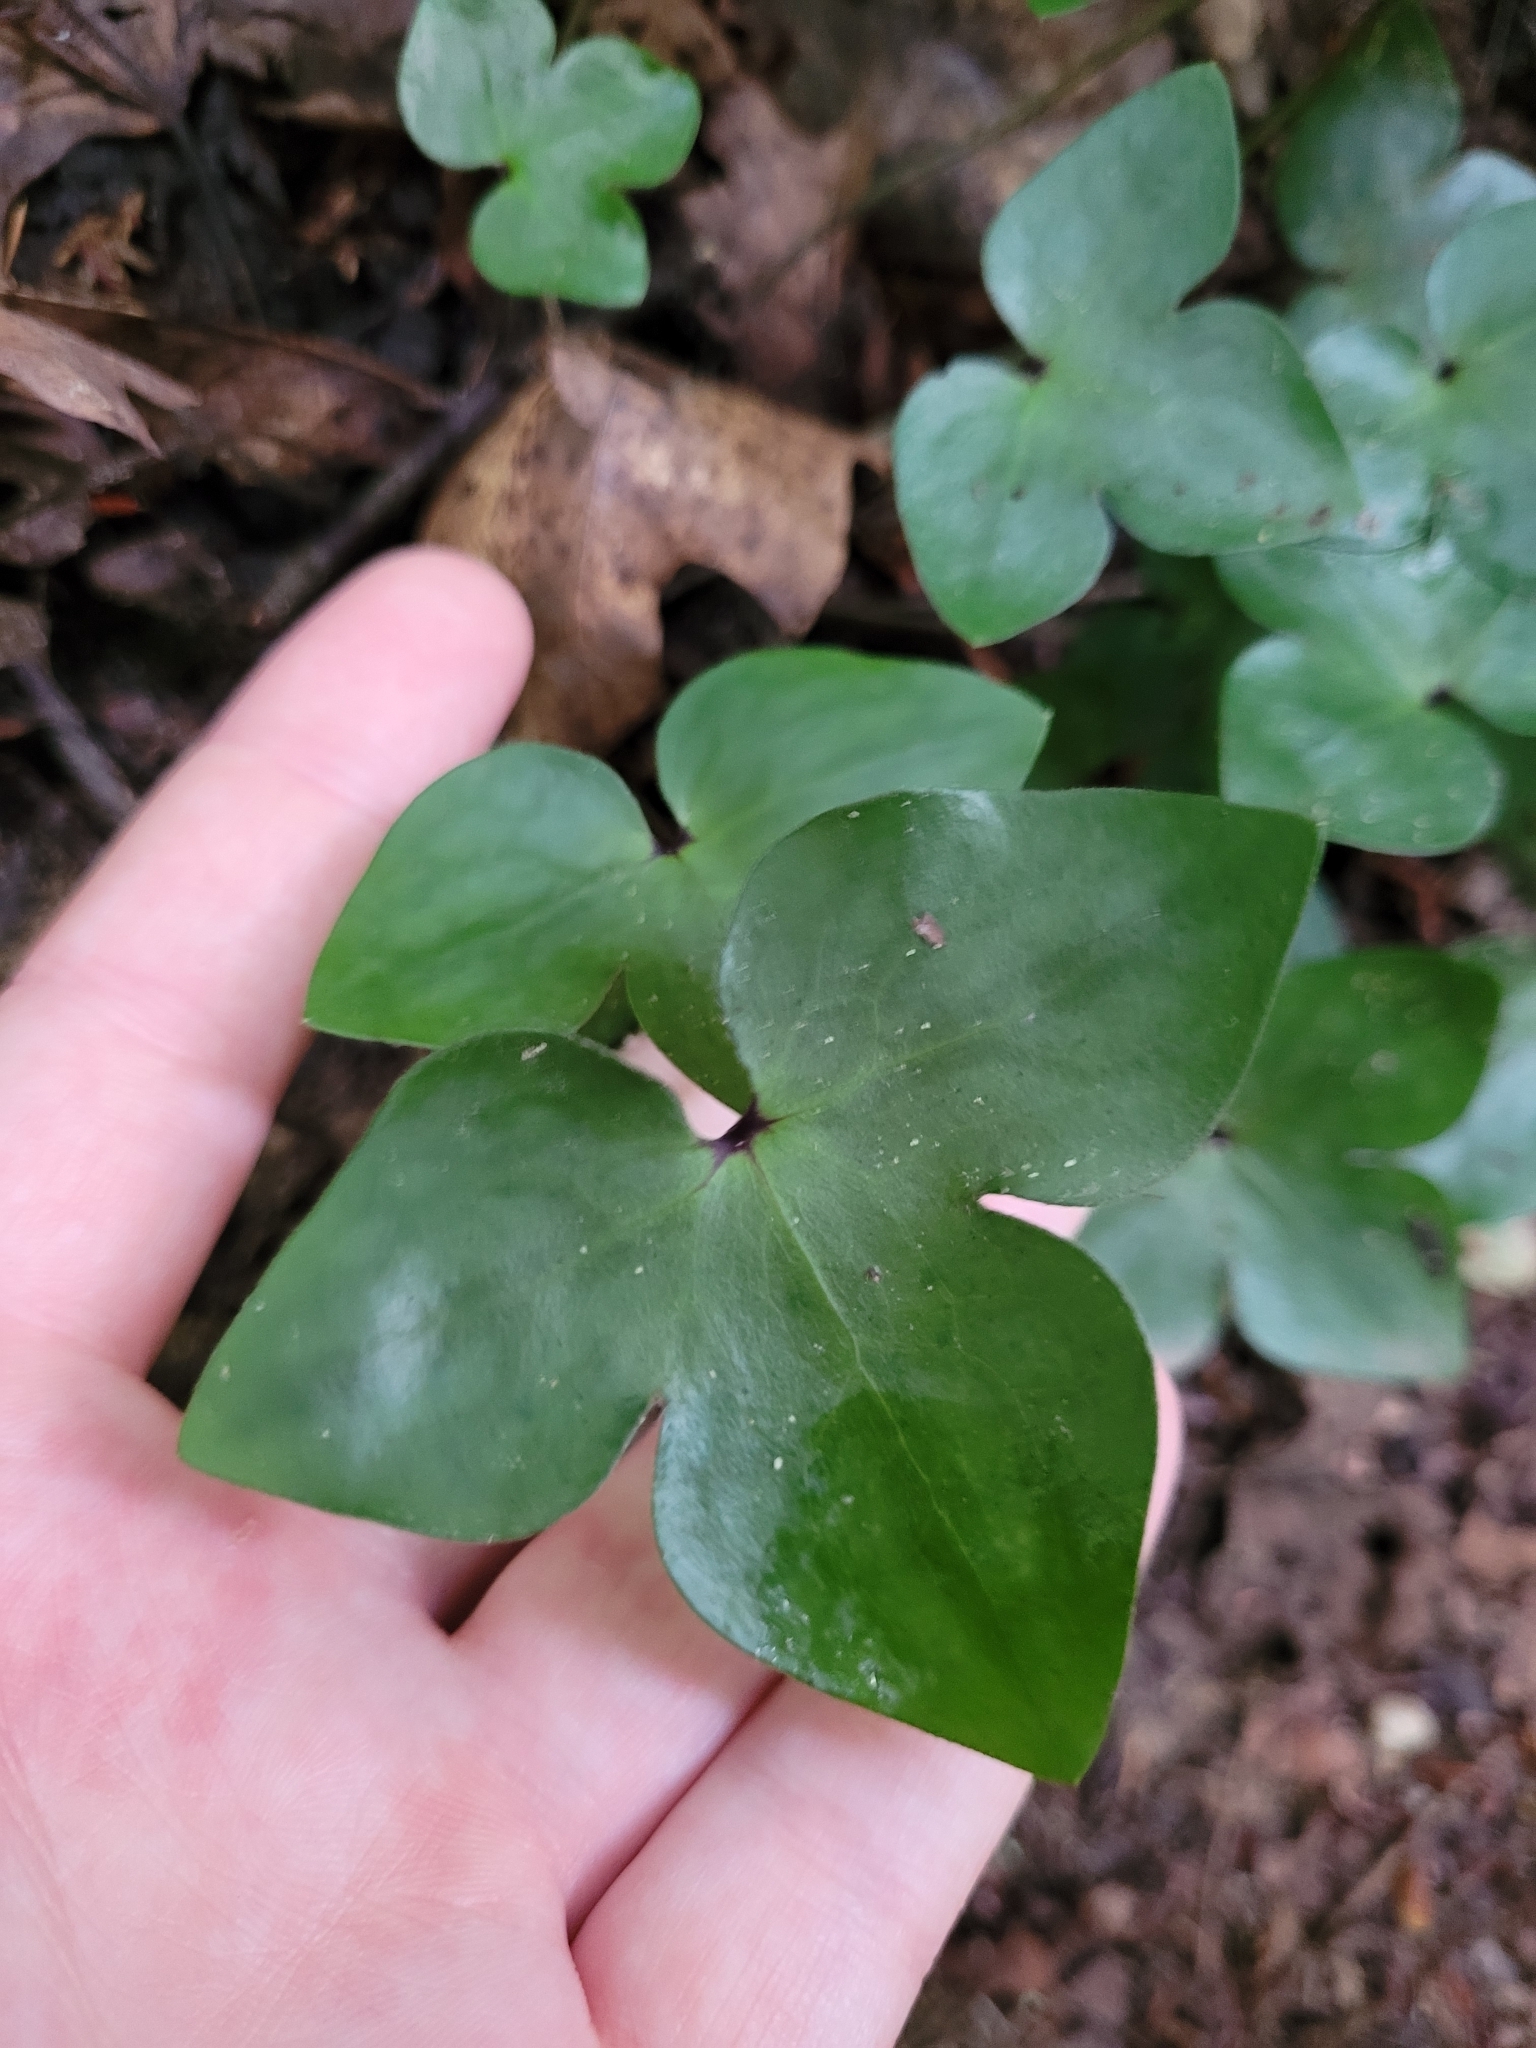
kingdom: Plantae
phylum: Tracheophyta
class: Magnoliopsida
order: Ranunculales
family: Ranunculaceae
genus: Hepatica
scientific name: Hepatica acutiloba
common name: Sharp-lobed hepatica
